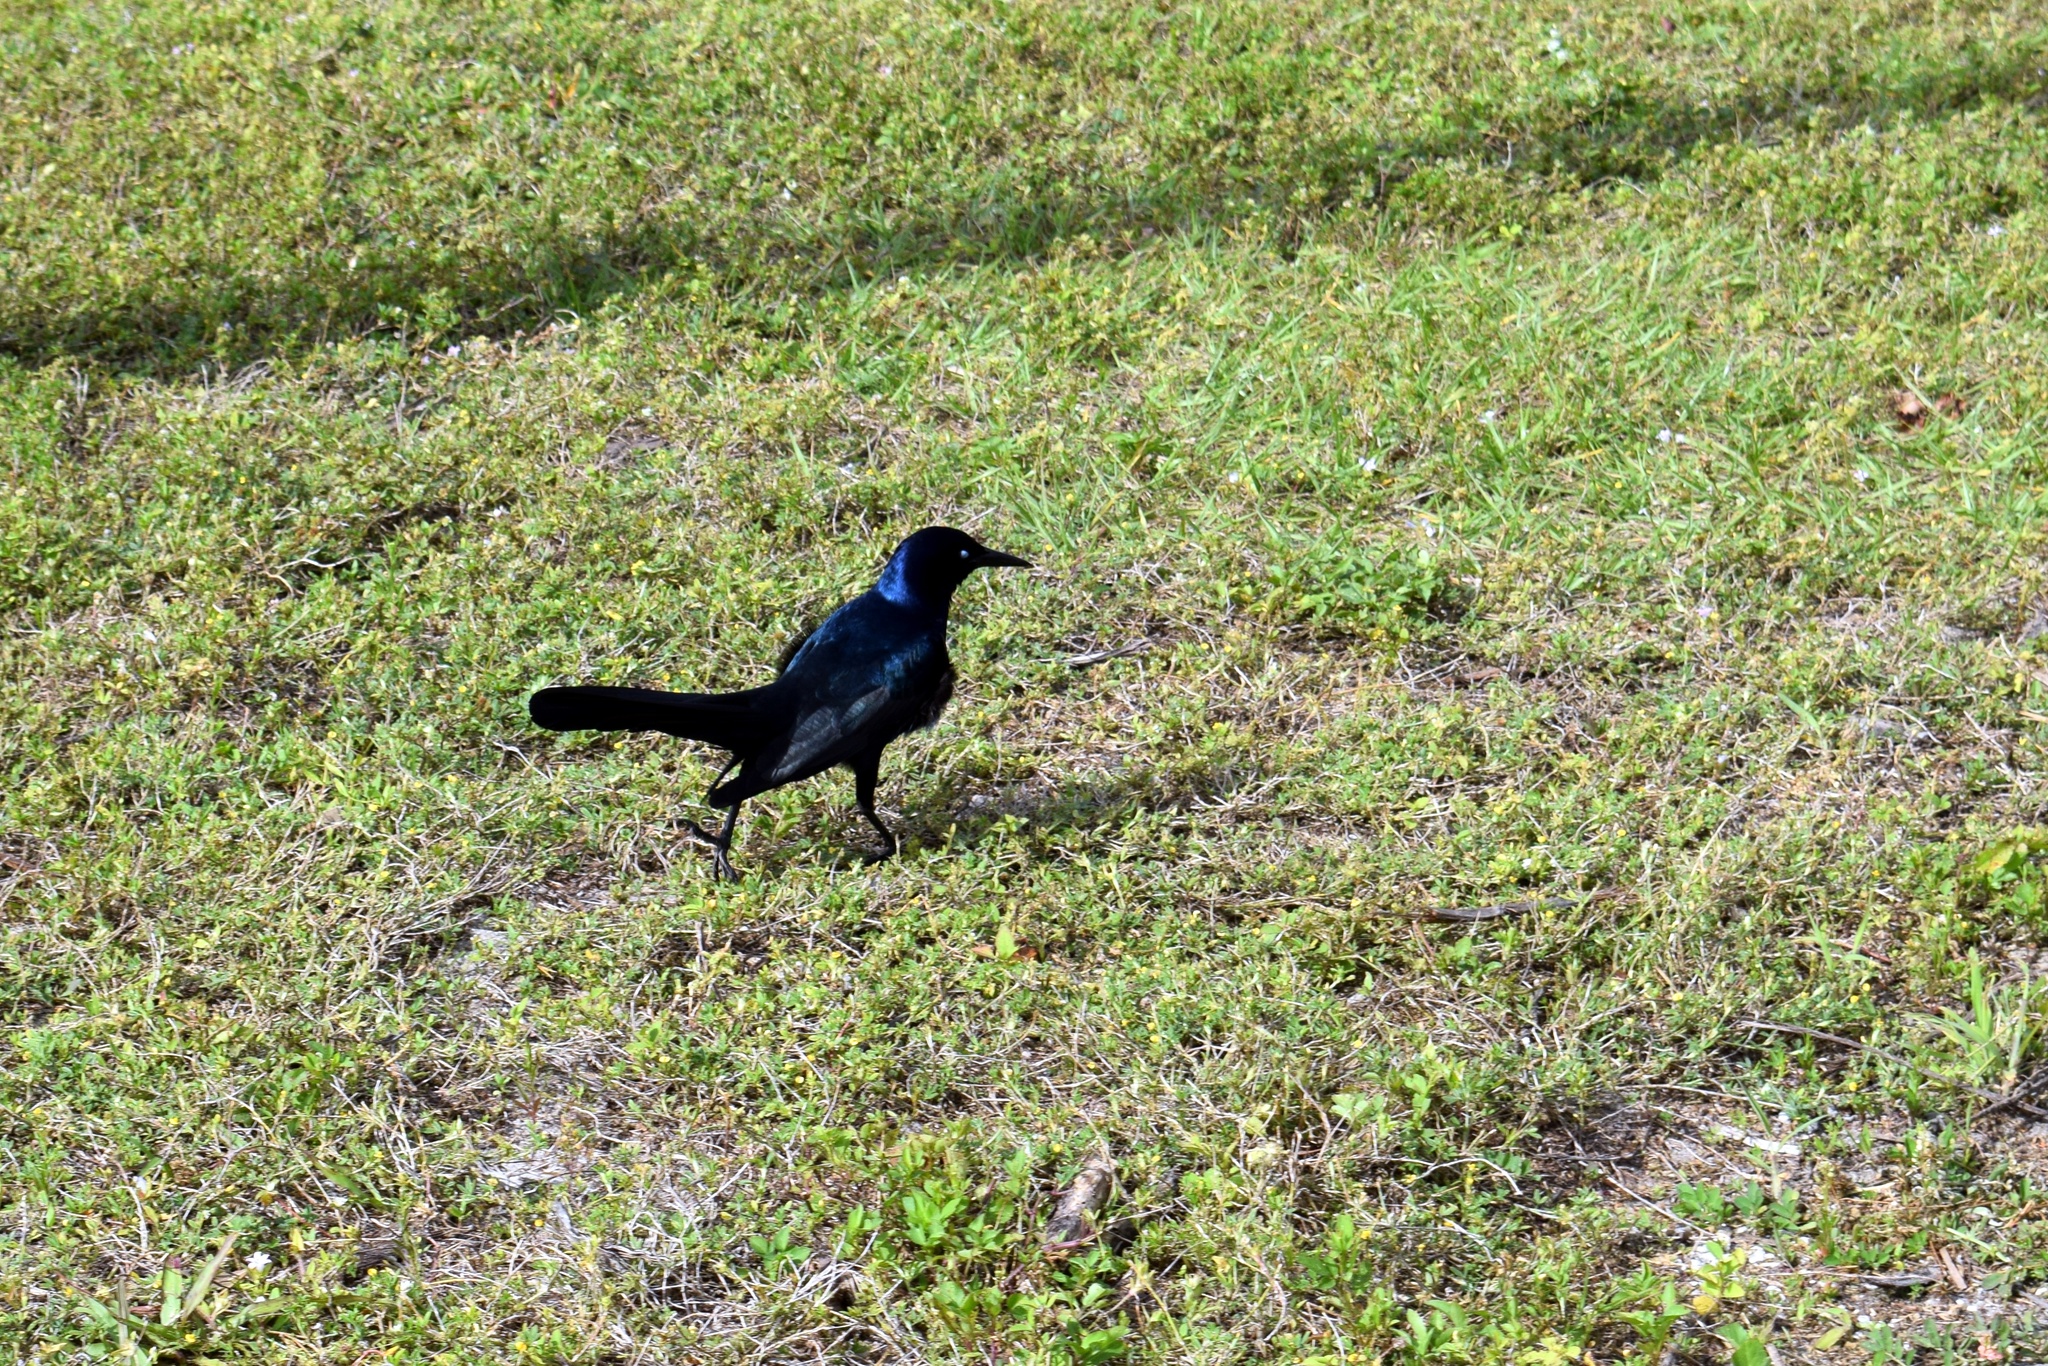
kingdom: Animalia
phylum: Chordata
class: Aves
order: Passeriformes
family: Icteridae
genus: Quiscalus
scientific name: Quiscalus major
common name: Boat-tailed grackle
